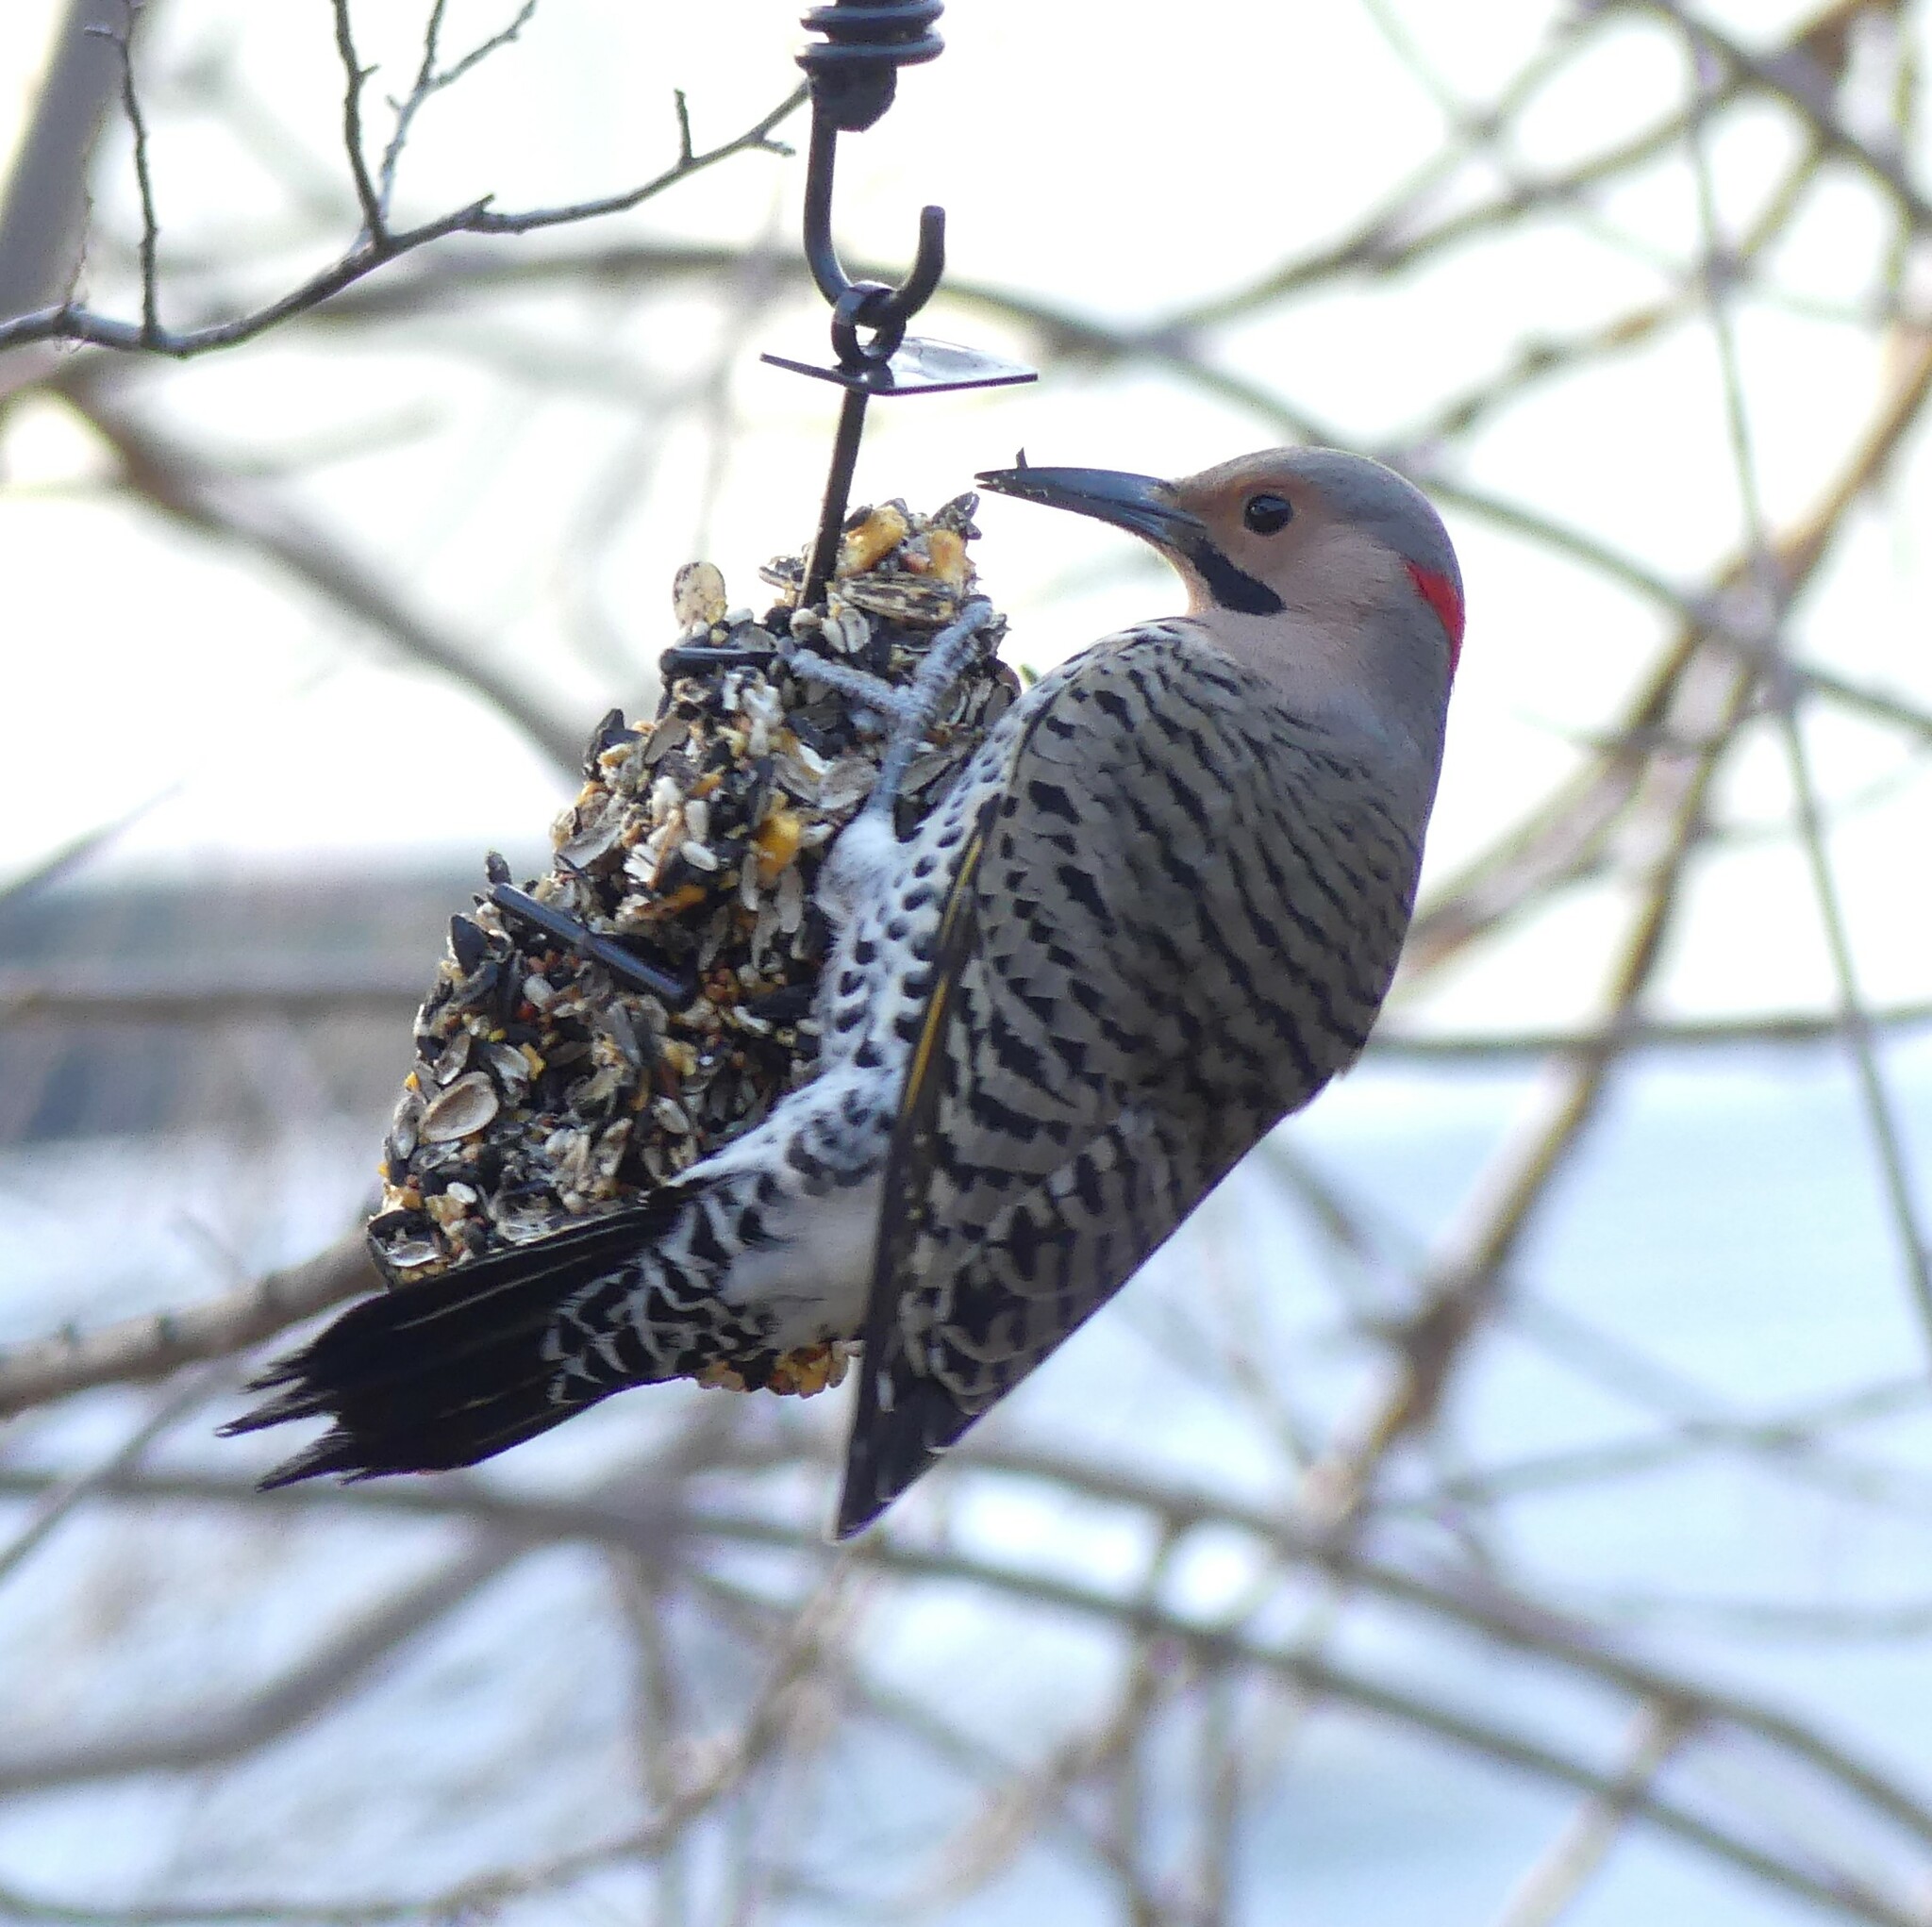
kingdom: Animalia
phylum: Chordata
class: Aves
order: Piciformes
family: Picidae
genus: Colaptes
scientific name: Colaptes auratus
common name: Northern flicker
